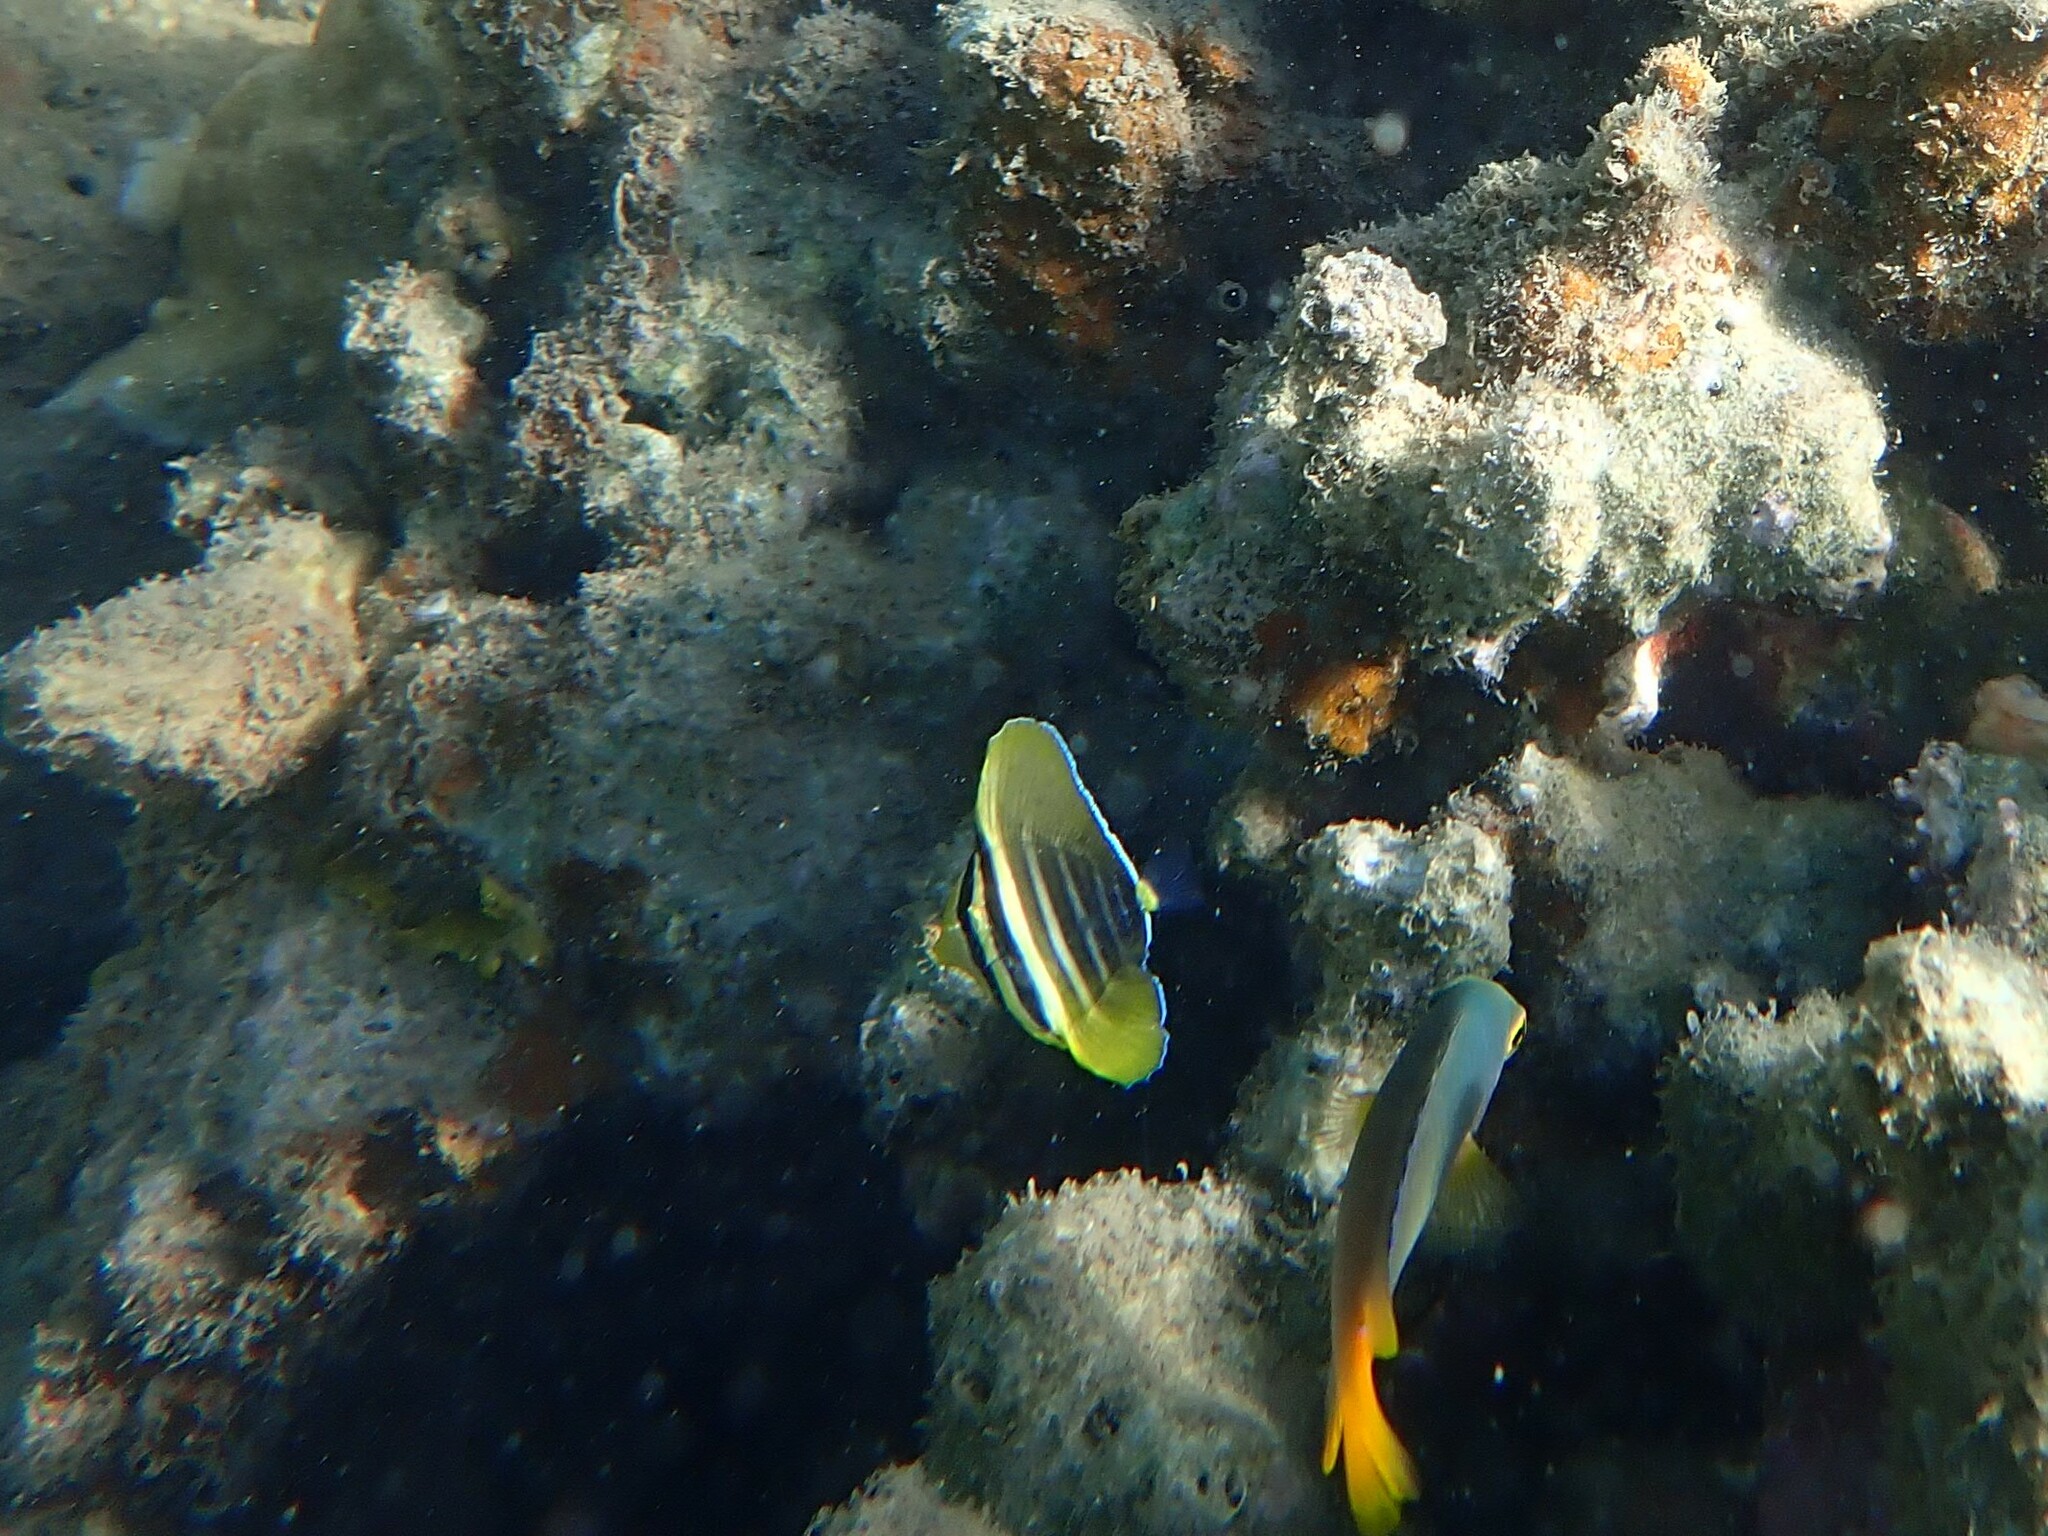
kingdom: Animalia
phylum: Chordata
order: Perciformes
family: Acanthuridae
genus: Zebrasoma
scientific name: Zebrasoma veliferum
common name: Sailfin surgeonfish
